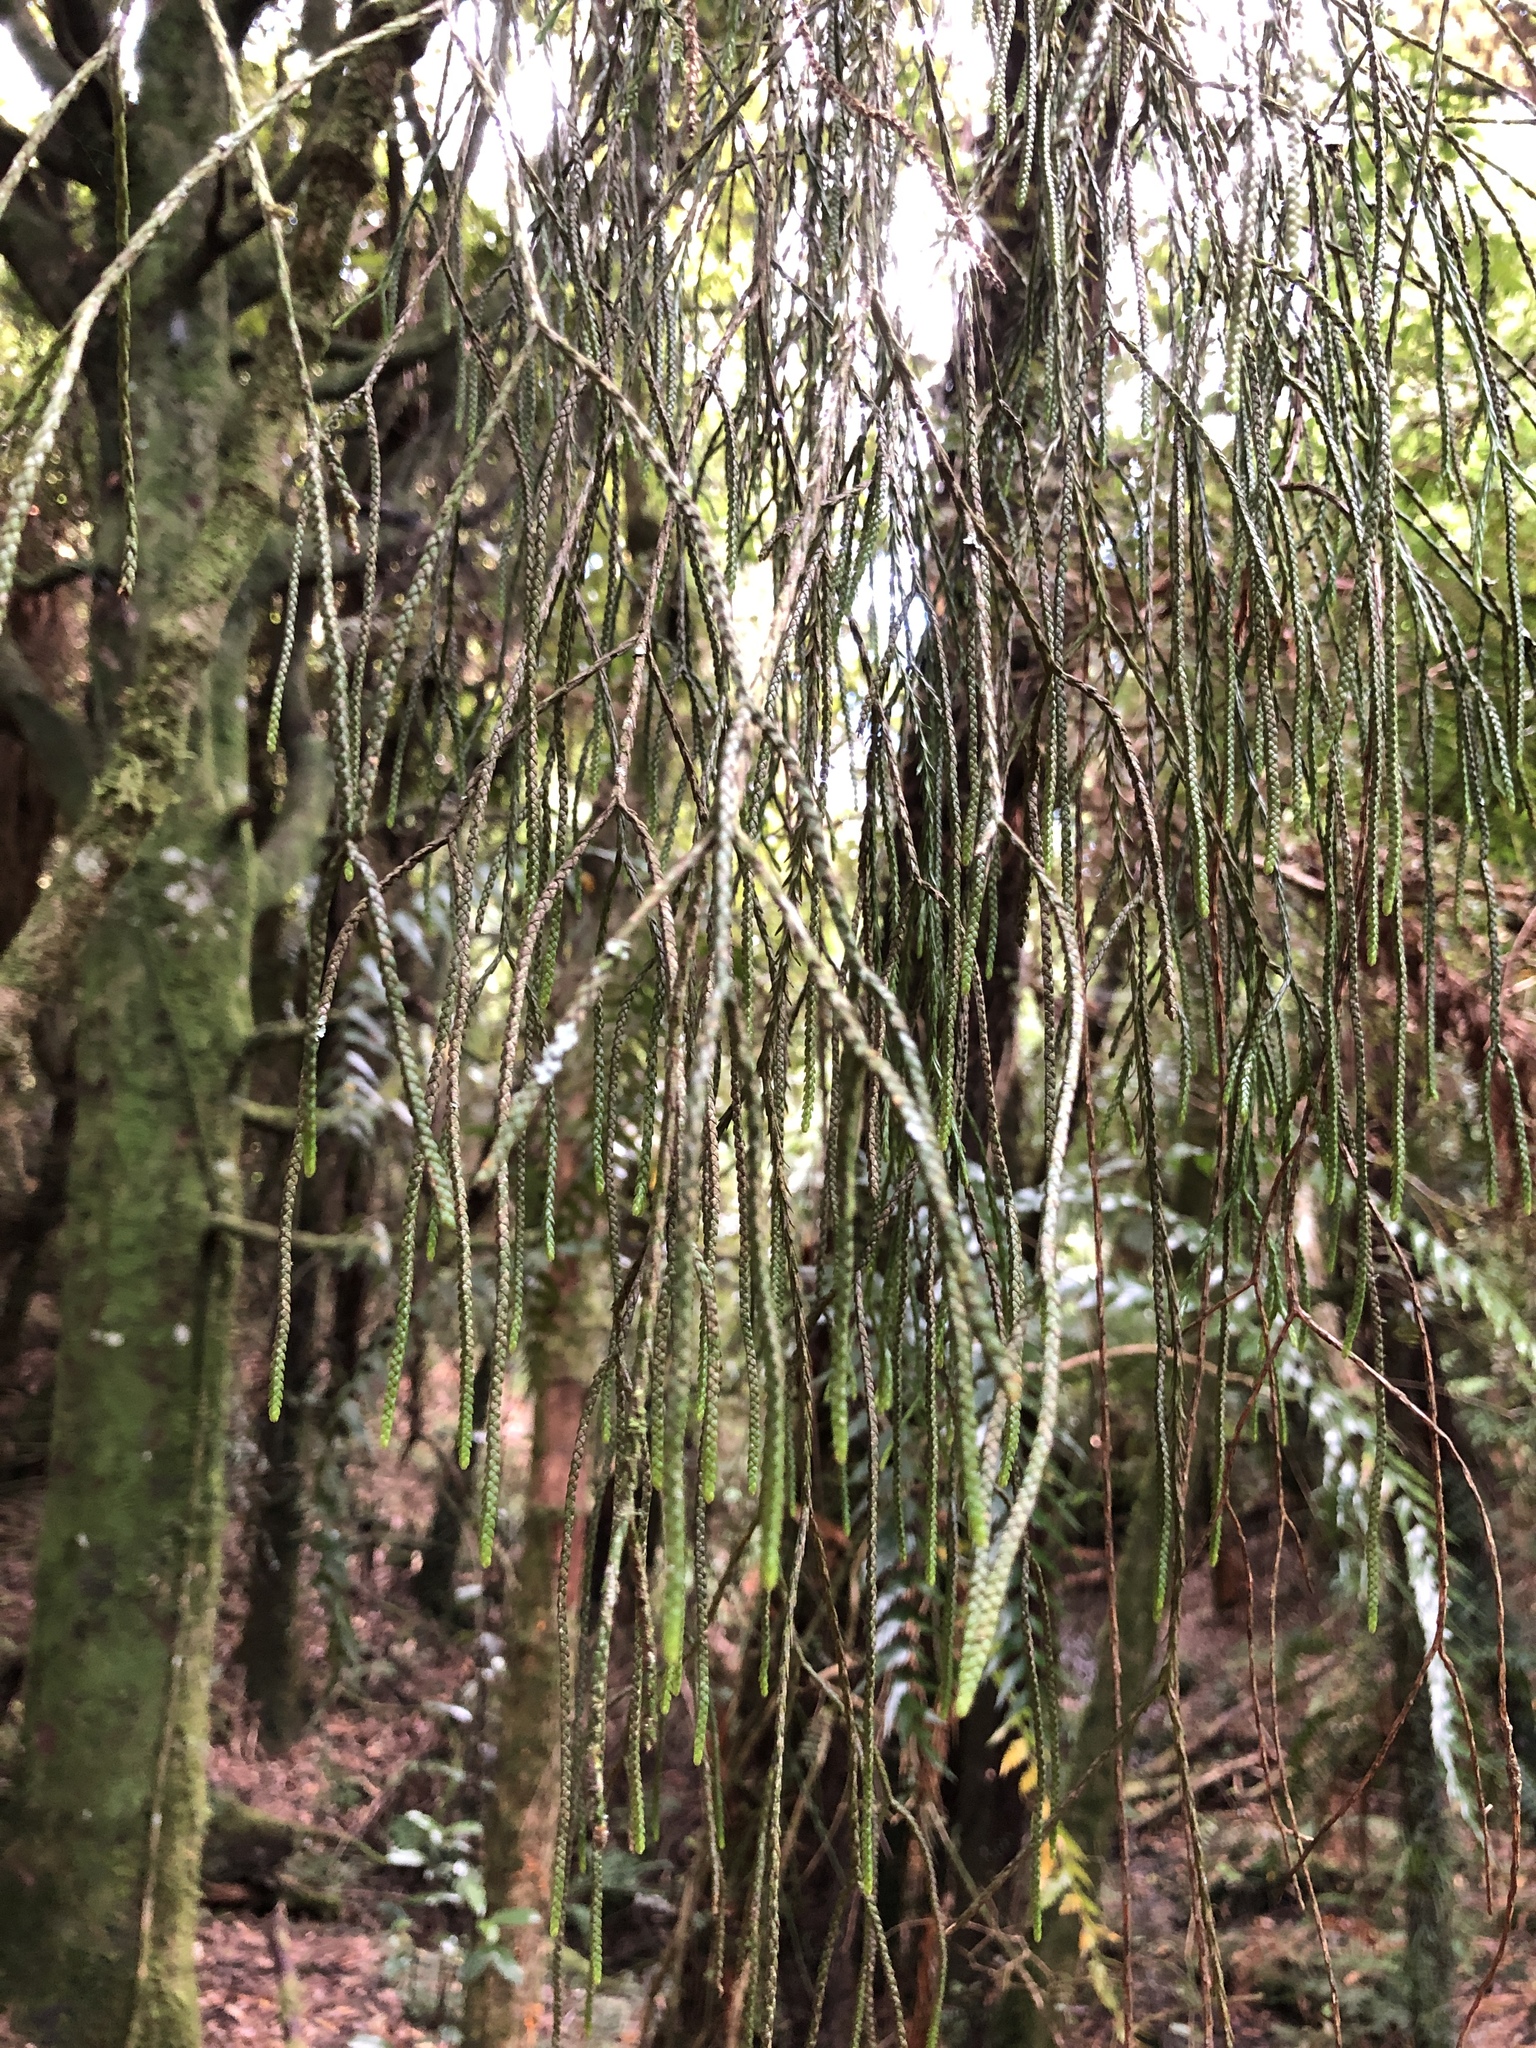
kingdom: Plantae
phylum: Tracheophyta
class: Lycopodiopsida
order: Lycopodiales
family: Lycopodiaceae
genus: Phlegmariurus
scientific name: Phlegmariurus varius
